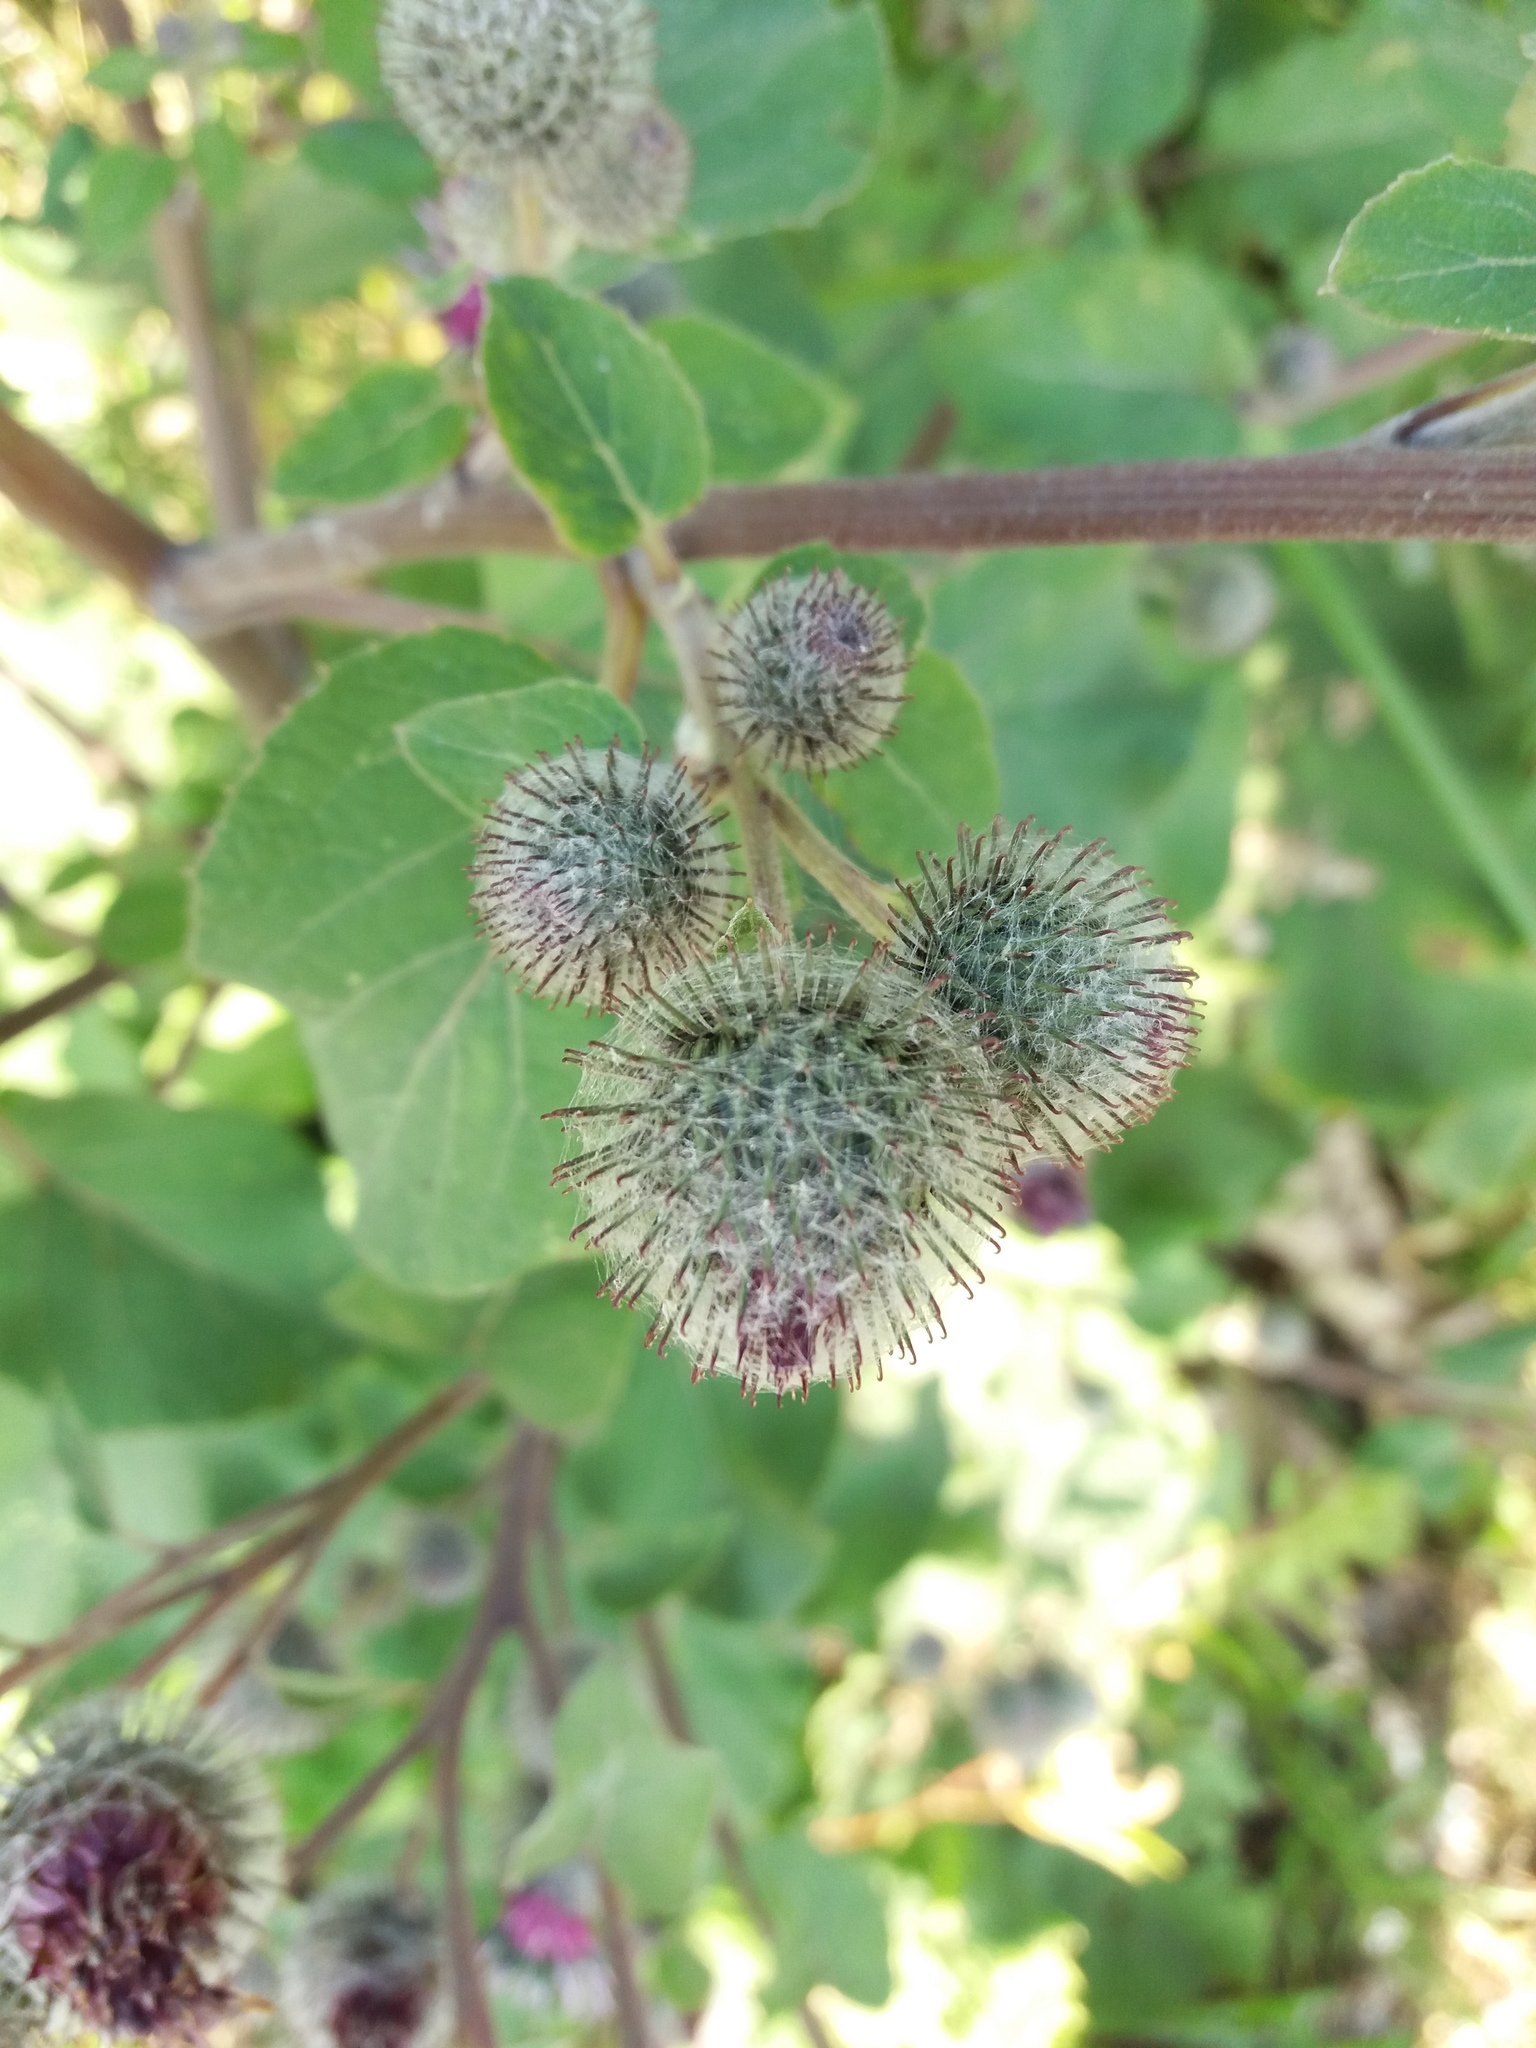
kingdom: Plantae
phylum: Tracheophyta
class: Magnoliopsida
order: Asterales
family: Asteraceae
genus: Arctium
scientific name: Arctium tomentosum
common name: Woolly burdock
